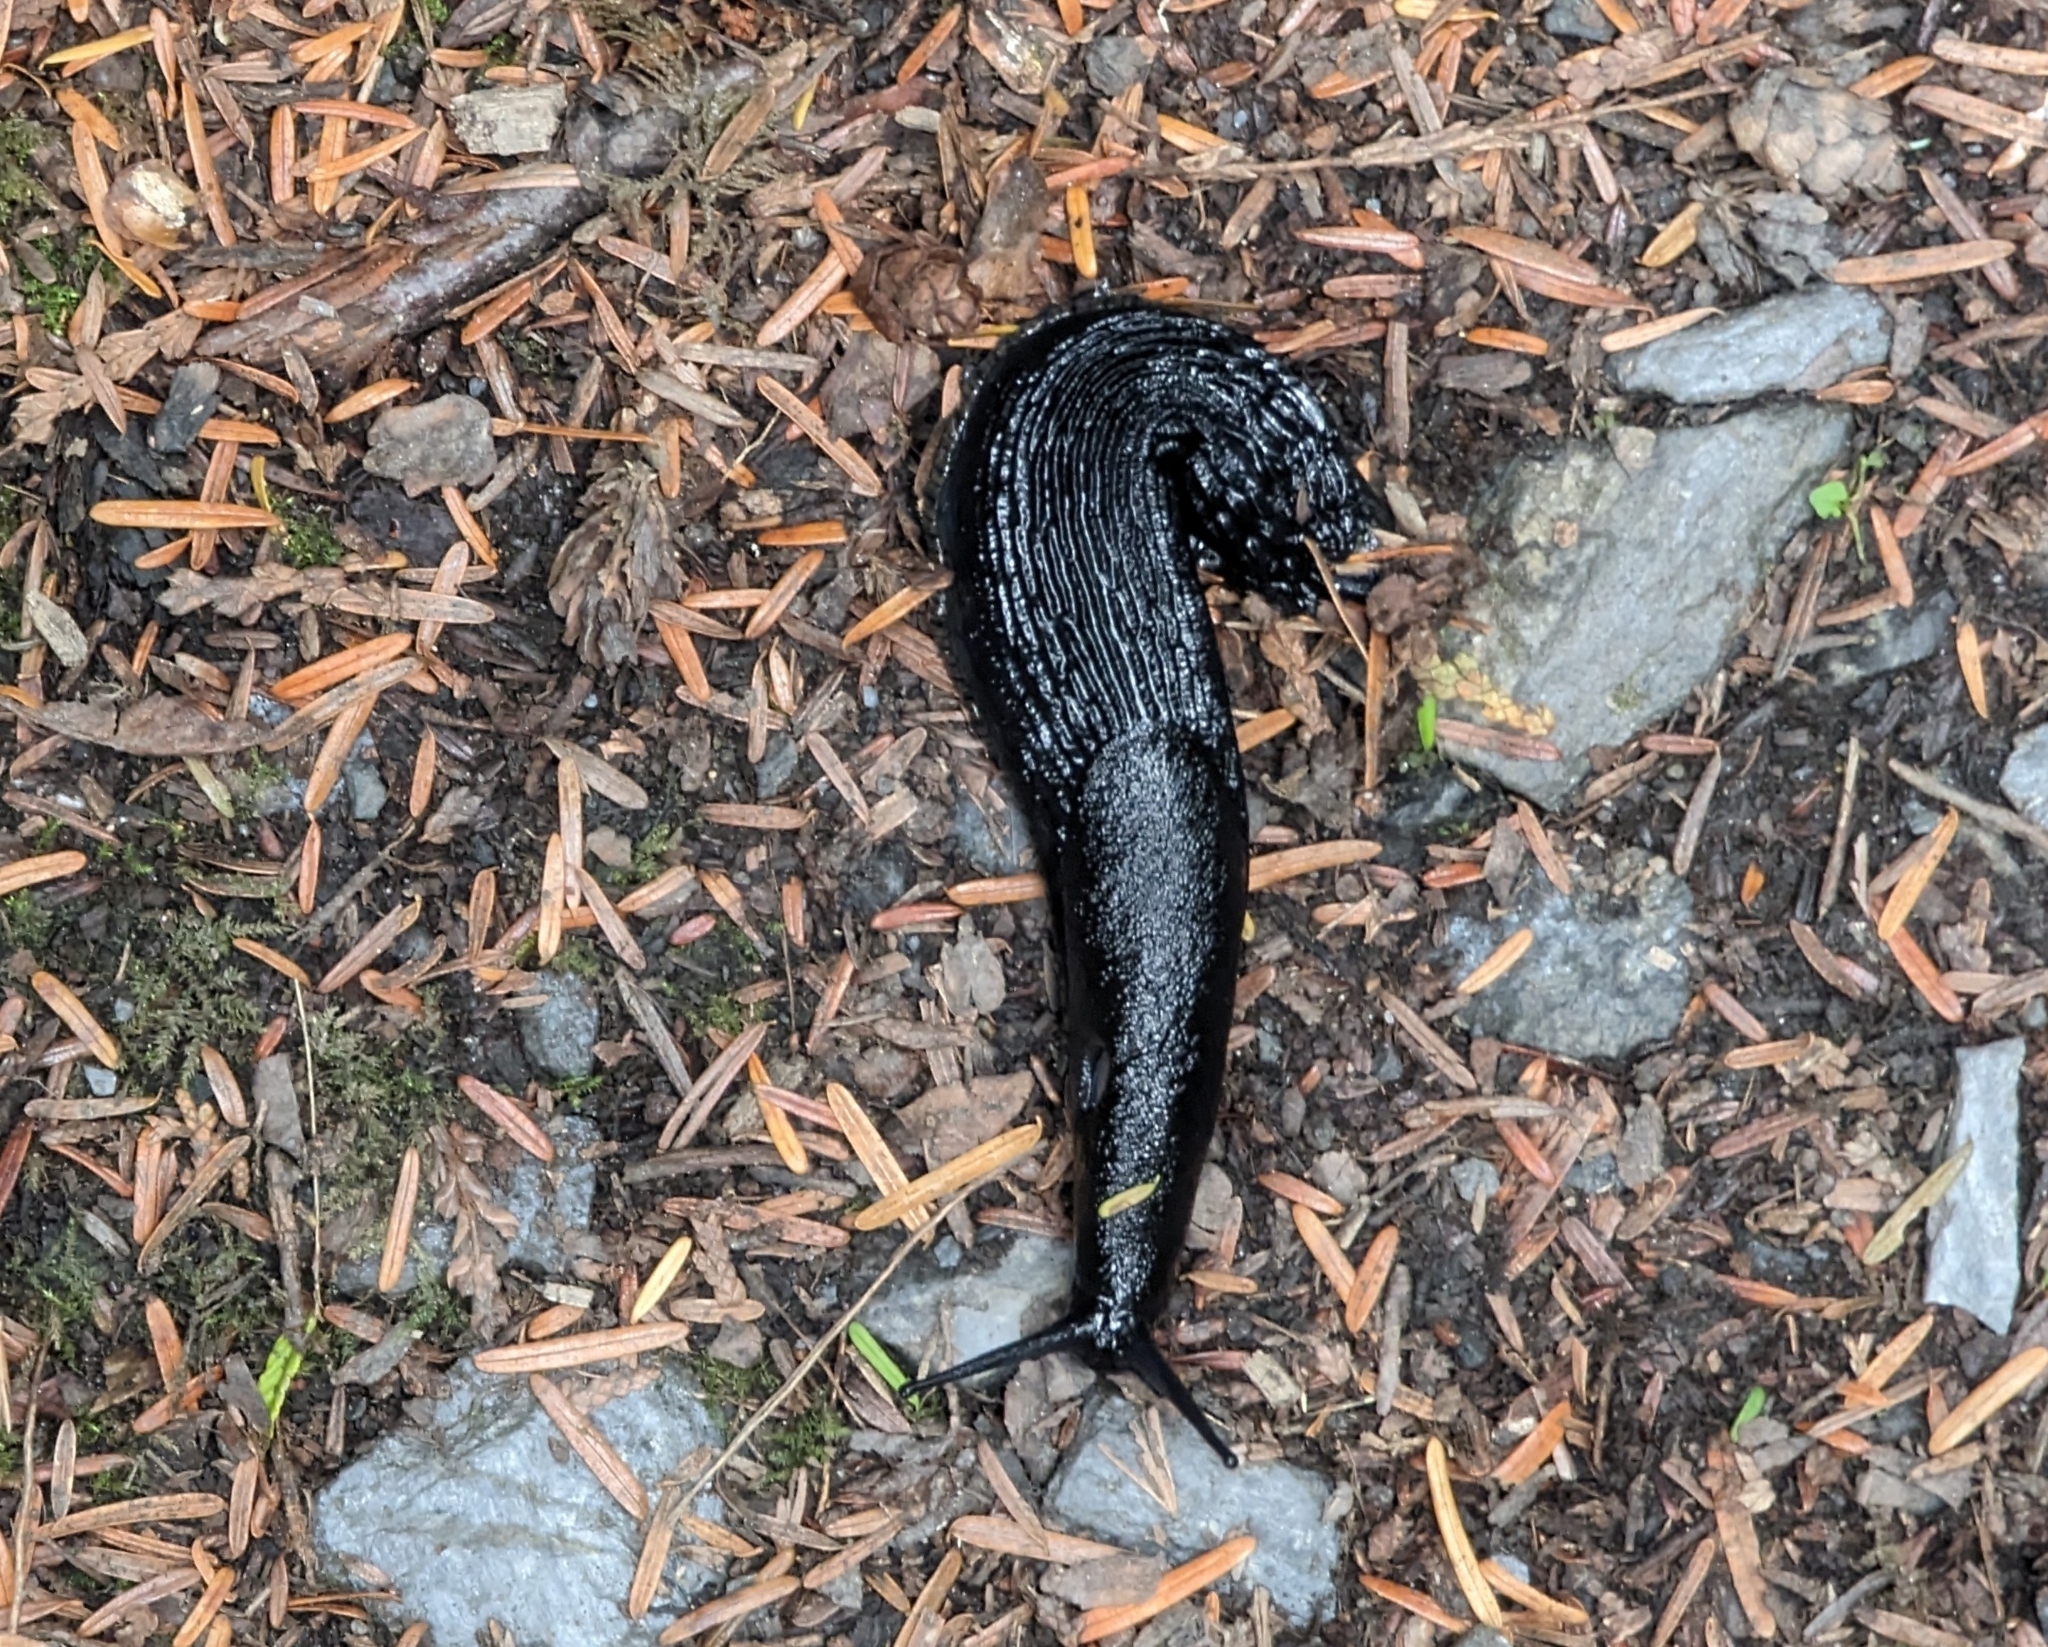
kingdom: Animalia
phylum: Mollusca
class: Gastropoda
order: Stylommatophora
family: Arionidae
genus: Arion
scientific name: Arion
